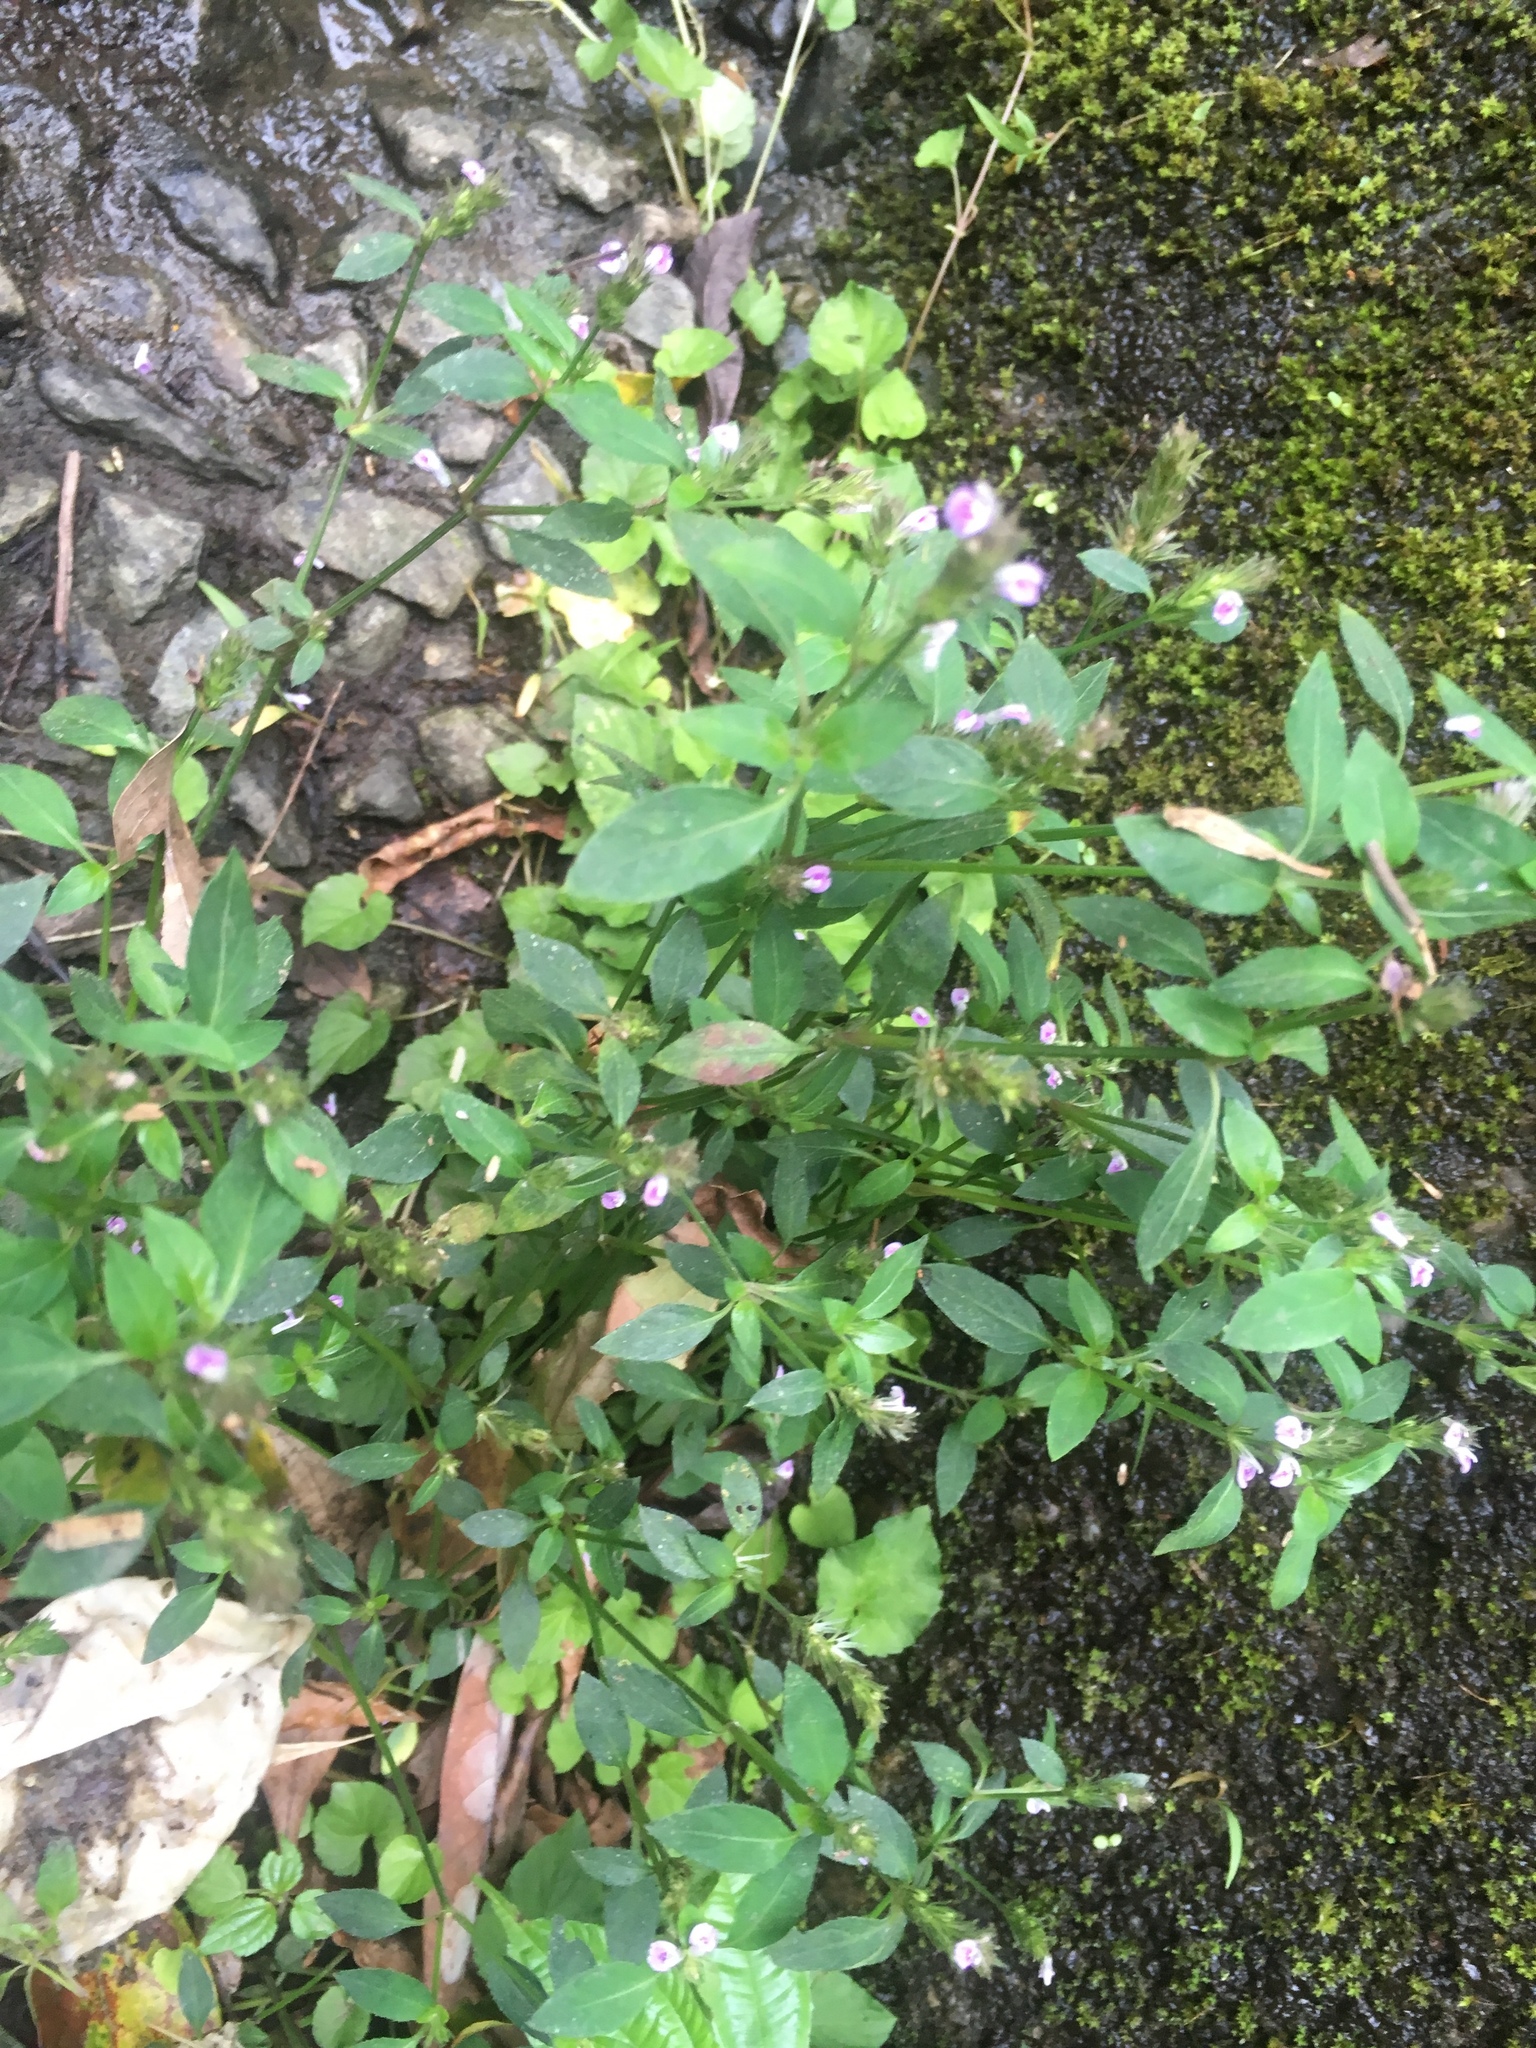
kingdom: Plantae
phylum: Tracheophyta
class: Magnoliopsida
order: Lamiales
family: Acanthaceae
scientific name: Acanthaceae
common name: Acanthaceae
